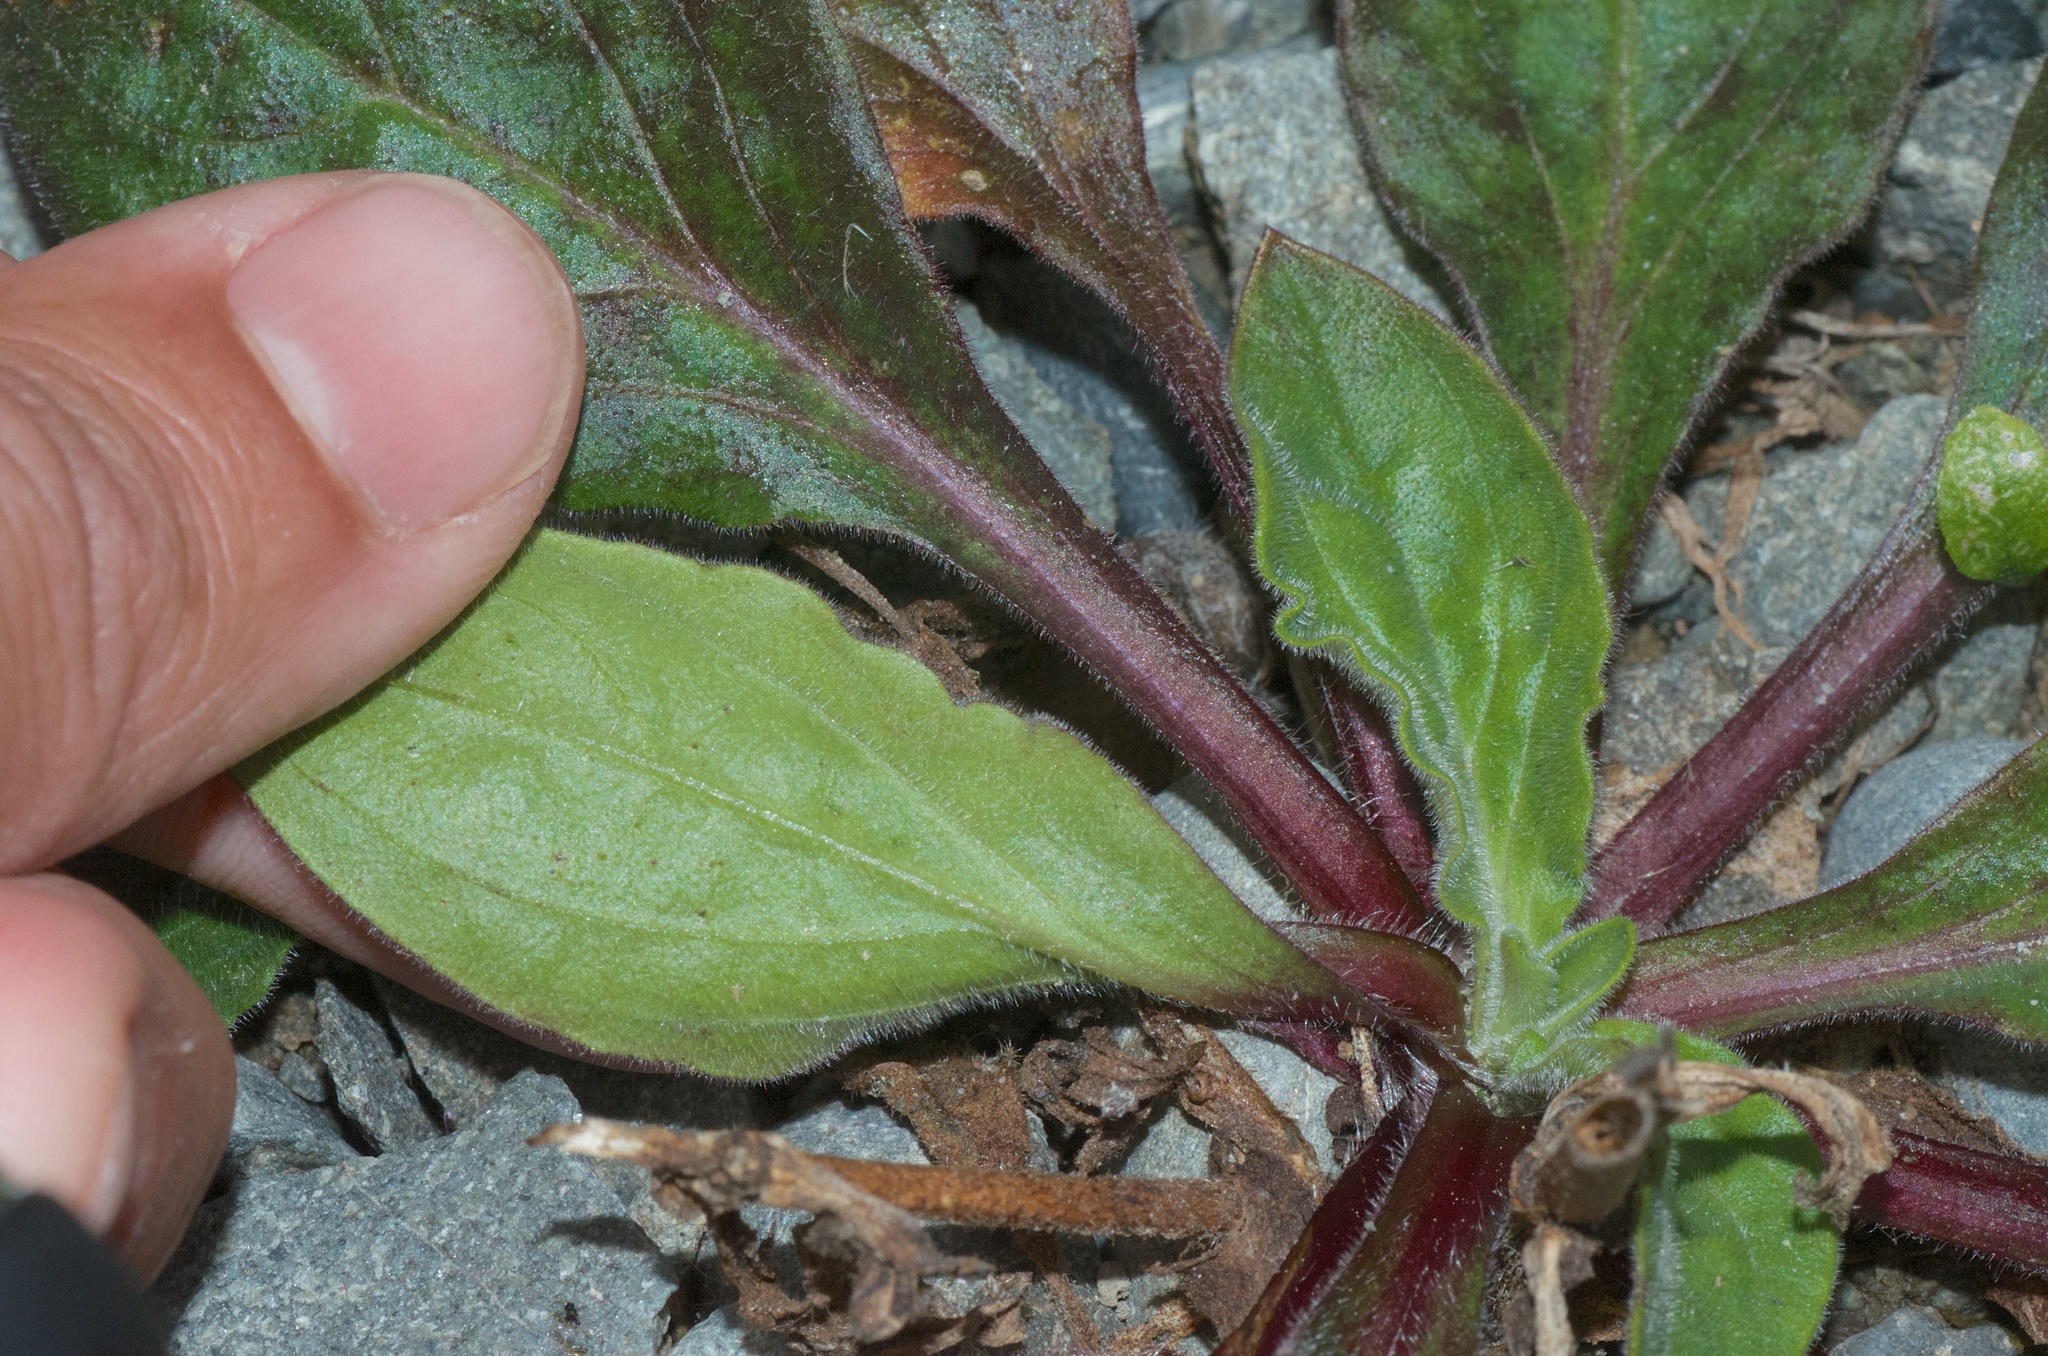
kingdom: Plantae
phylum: Tracheophyta
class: Magnoliopsida
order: Caryophyllales
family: Caryophyllaceae
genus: Silene
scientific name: Silene hampeana
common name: Catchfly
